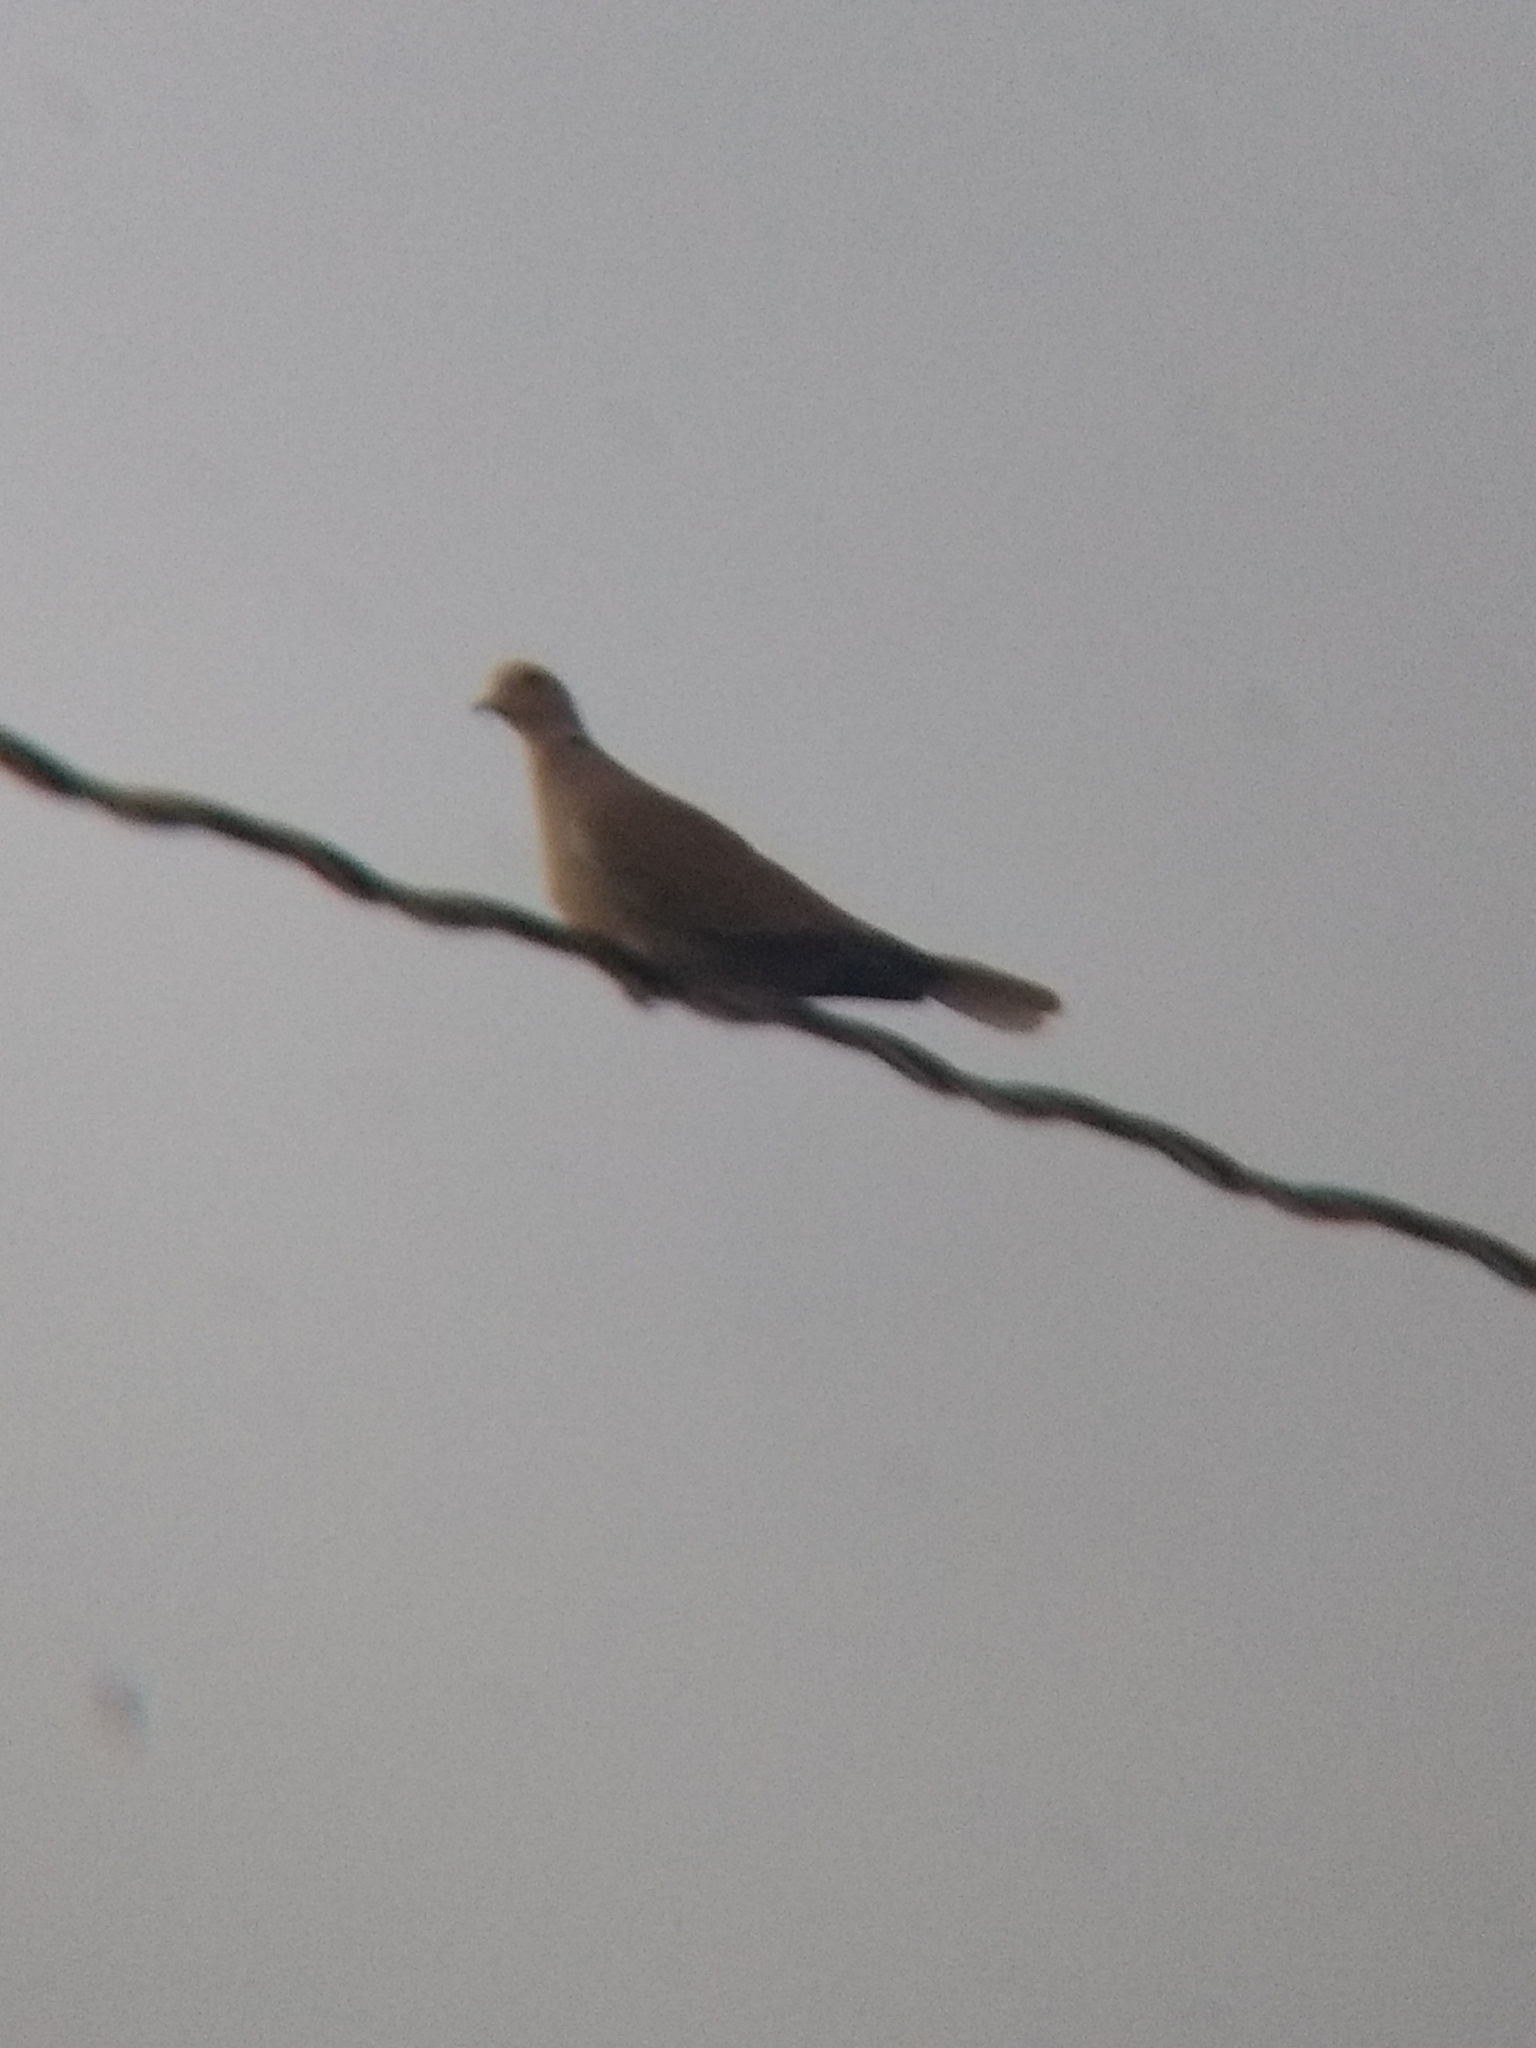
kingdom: Animalia
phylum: Chordata
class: Aves
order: Columbiformes
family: Columbidae
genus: Streptopelia
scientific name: Streptopelia decaocto
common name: Eurasian collared dove
